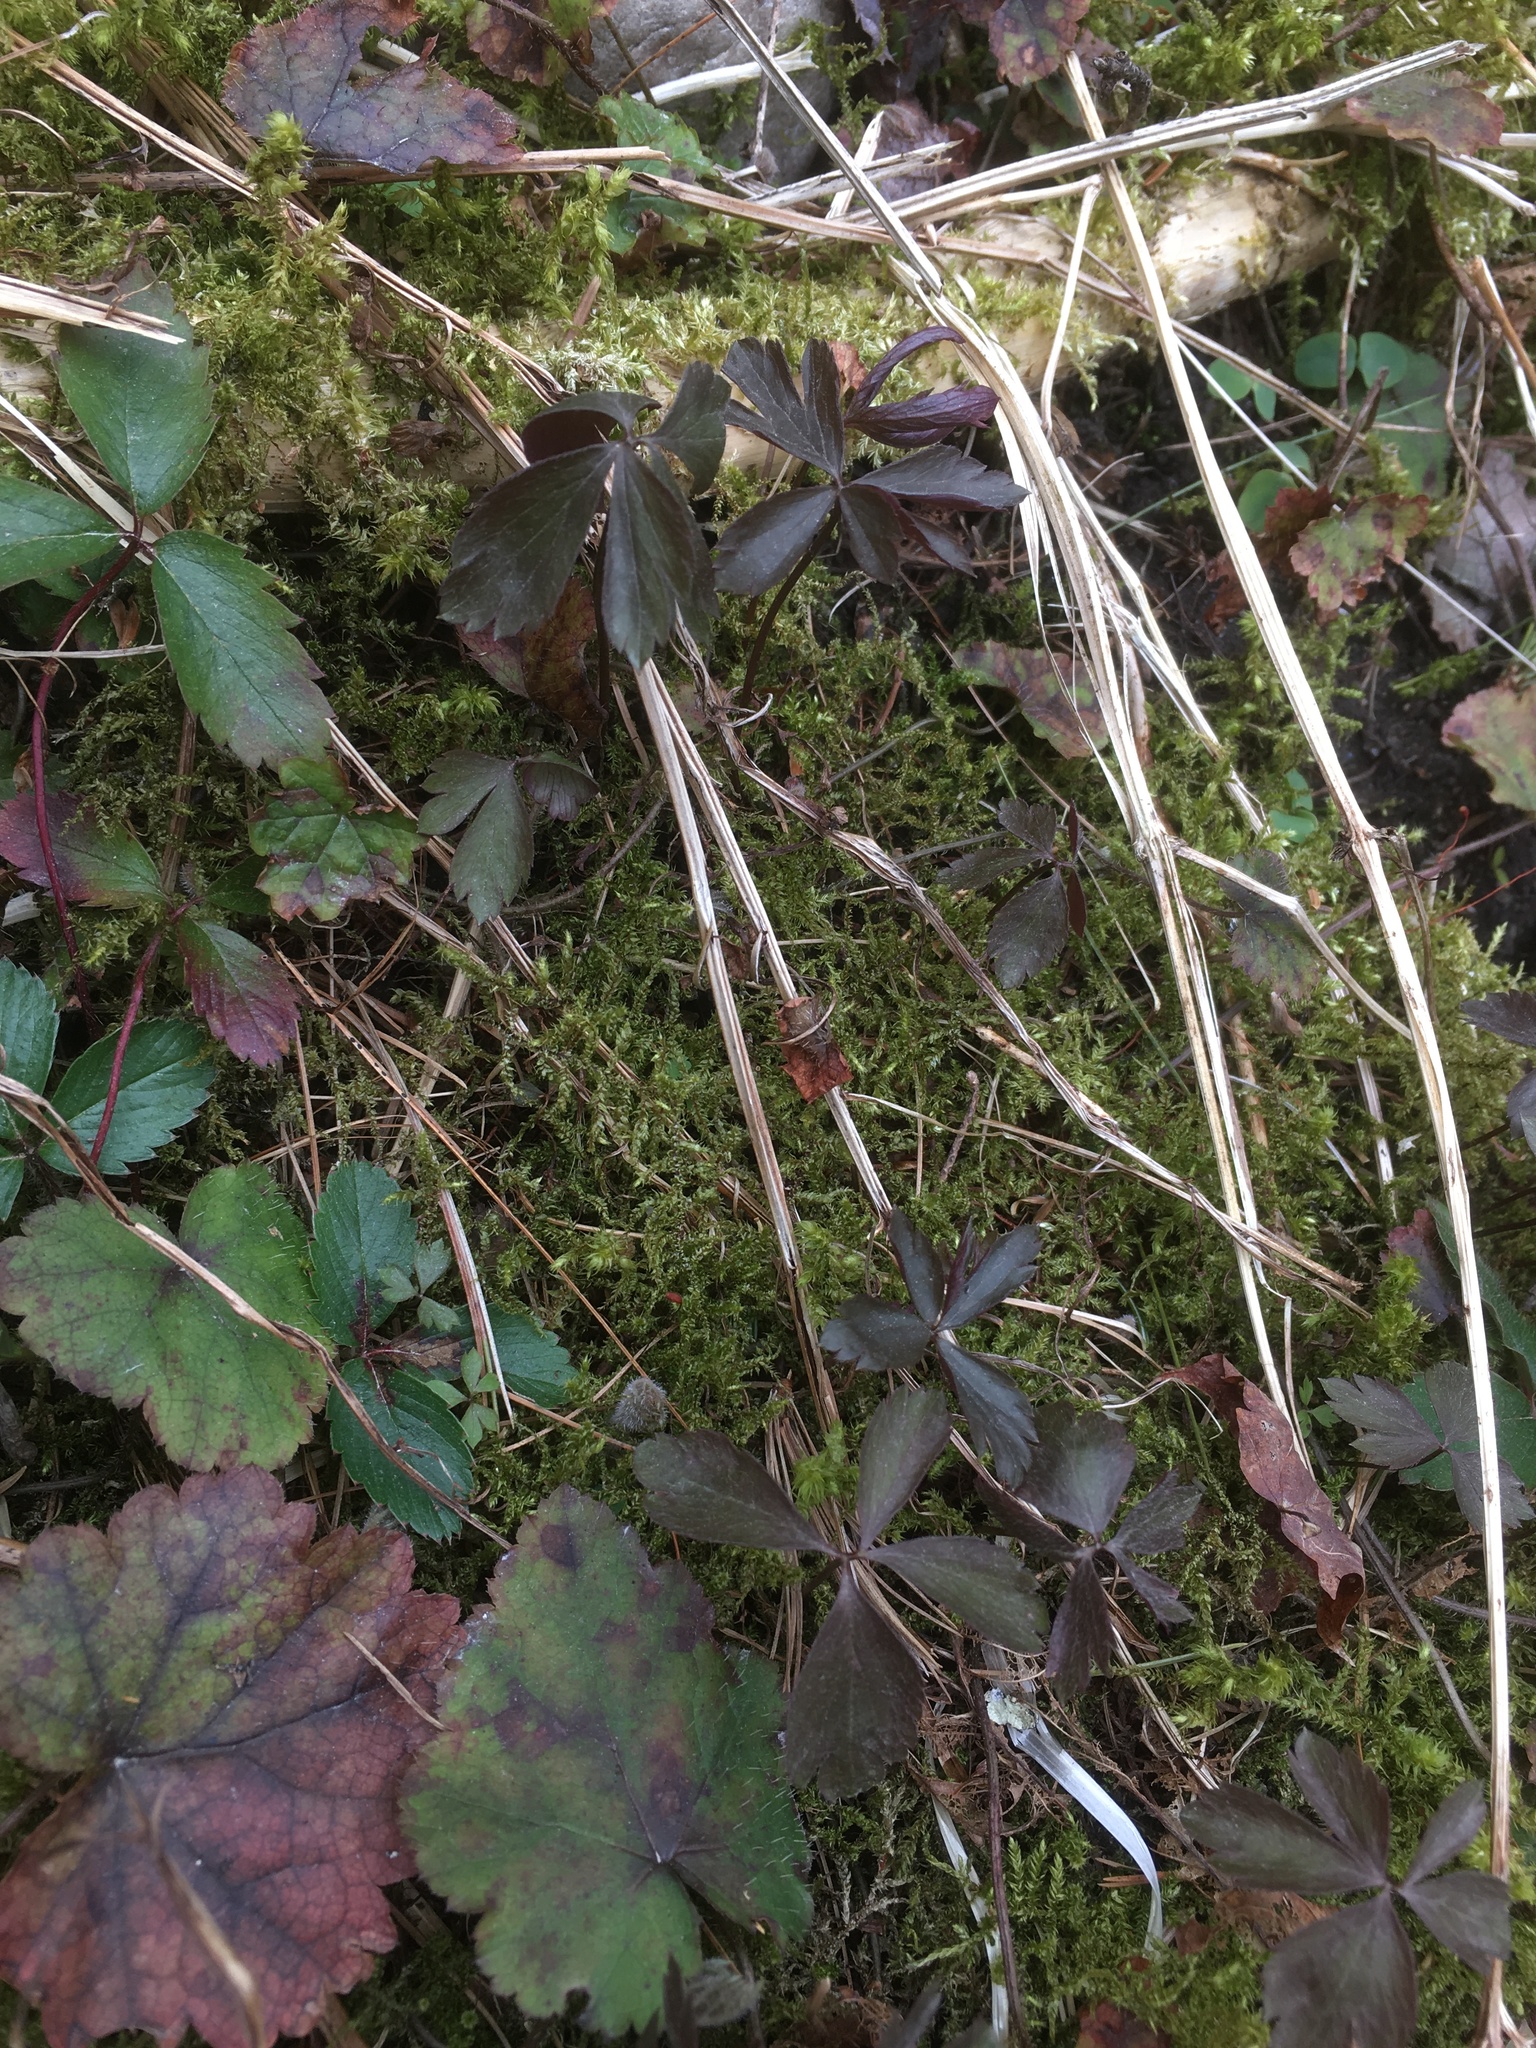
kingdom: Plantae
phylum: Tracheophyta
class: Magnoliopsida
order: Ranunculales
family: Ranunculaceae
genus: Anemone
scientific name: Anemone quinquefolia
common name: Wood anemone
